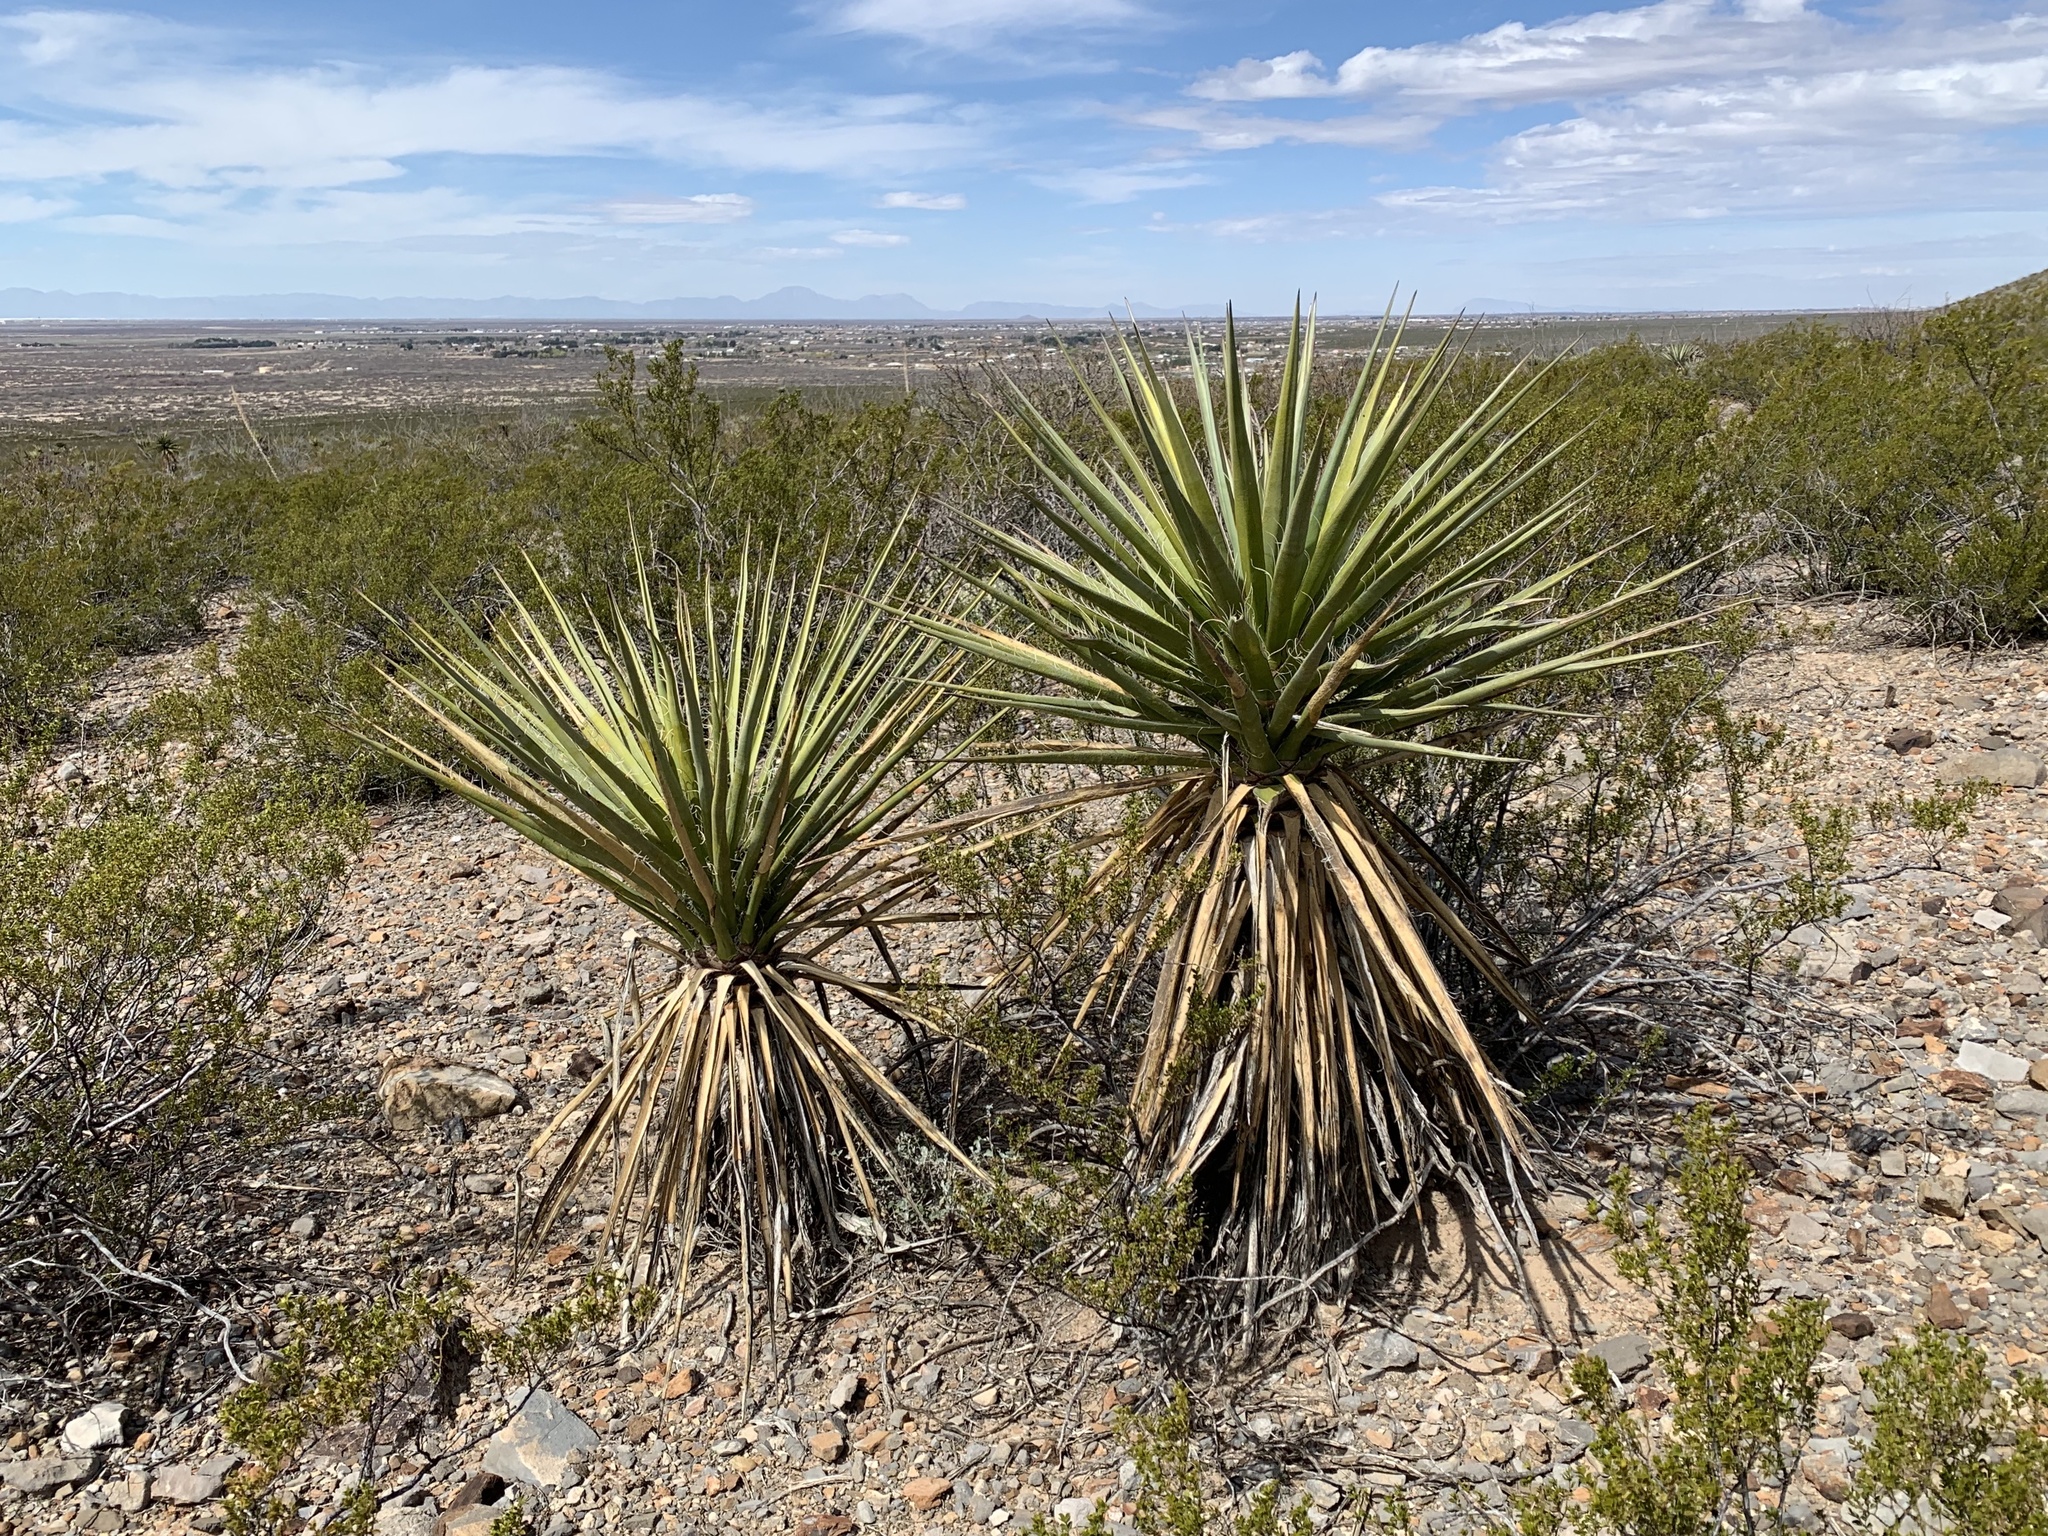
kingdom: Plantae
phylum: Tracheophyta
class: Liliopsida
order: Asparagales
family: Asparagaceae
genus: Yucca
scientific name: Yucca treculiana
